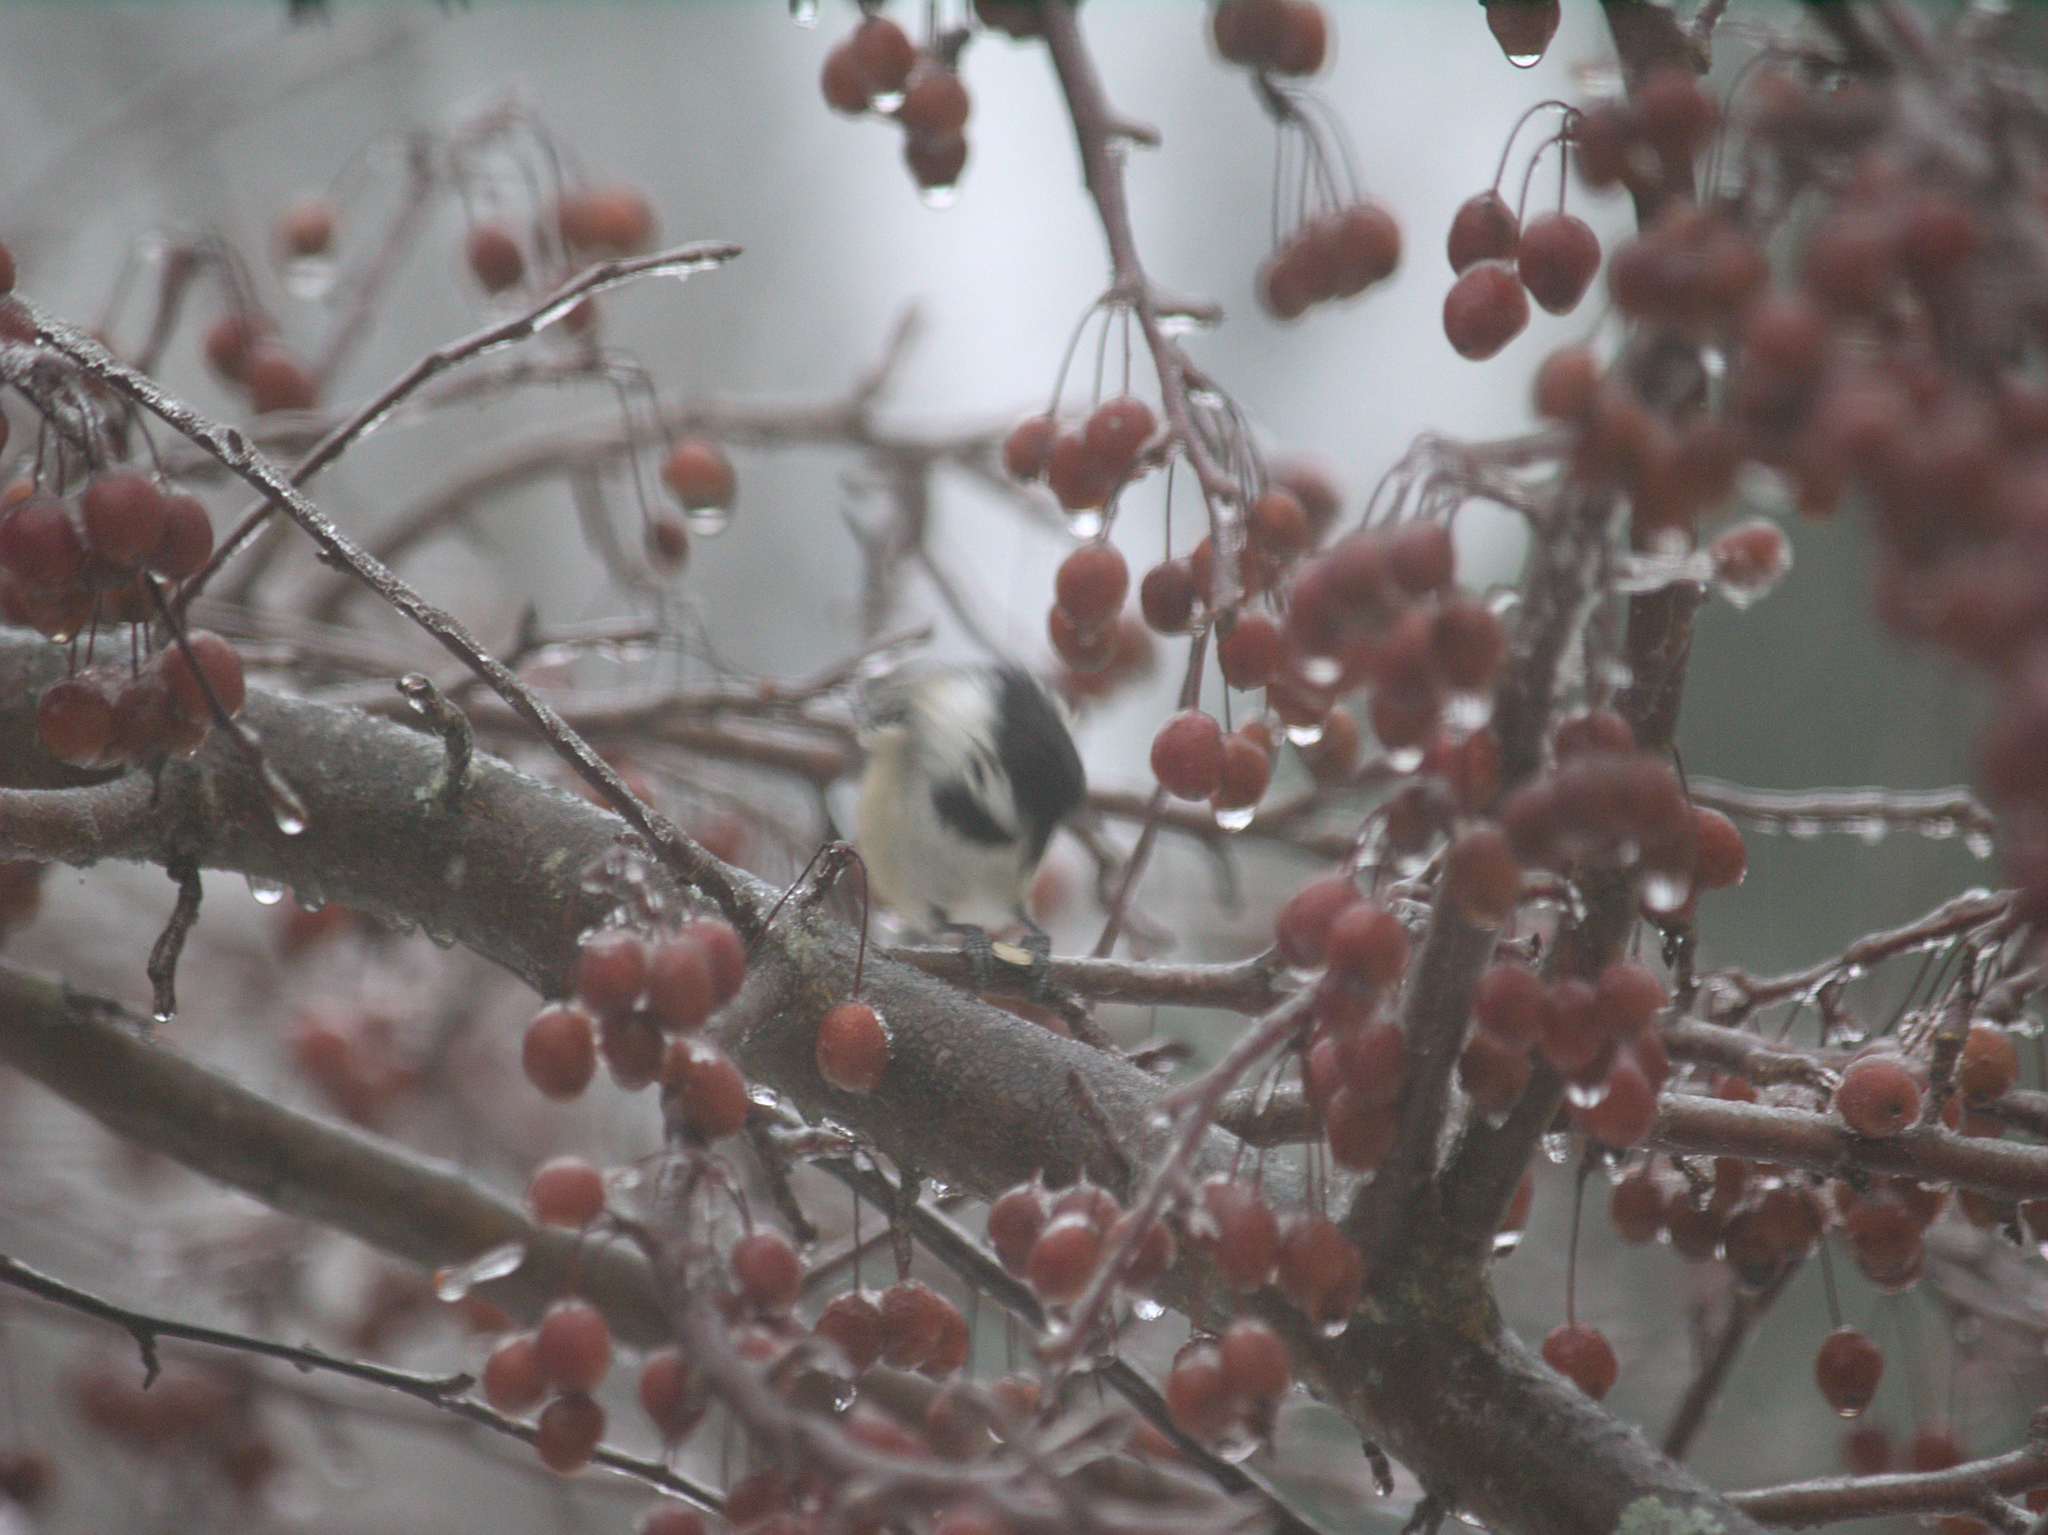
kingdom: Animalia
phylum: Chordata
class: Aves
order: Passeriformes
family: Paridae
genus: Poecile
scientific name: Poecile atricapillus
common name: Black-capped chickadee
